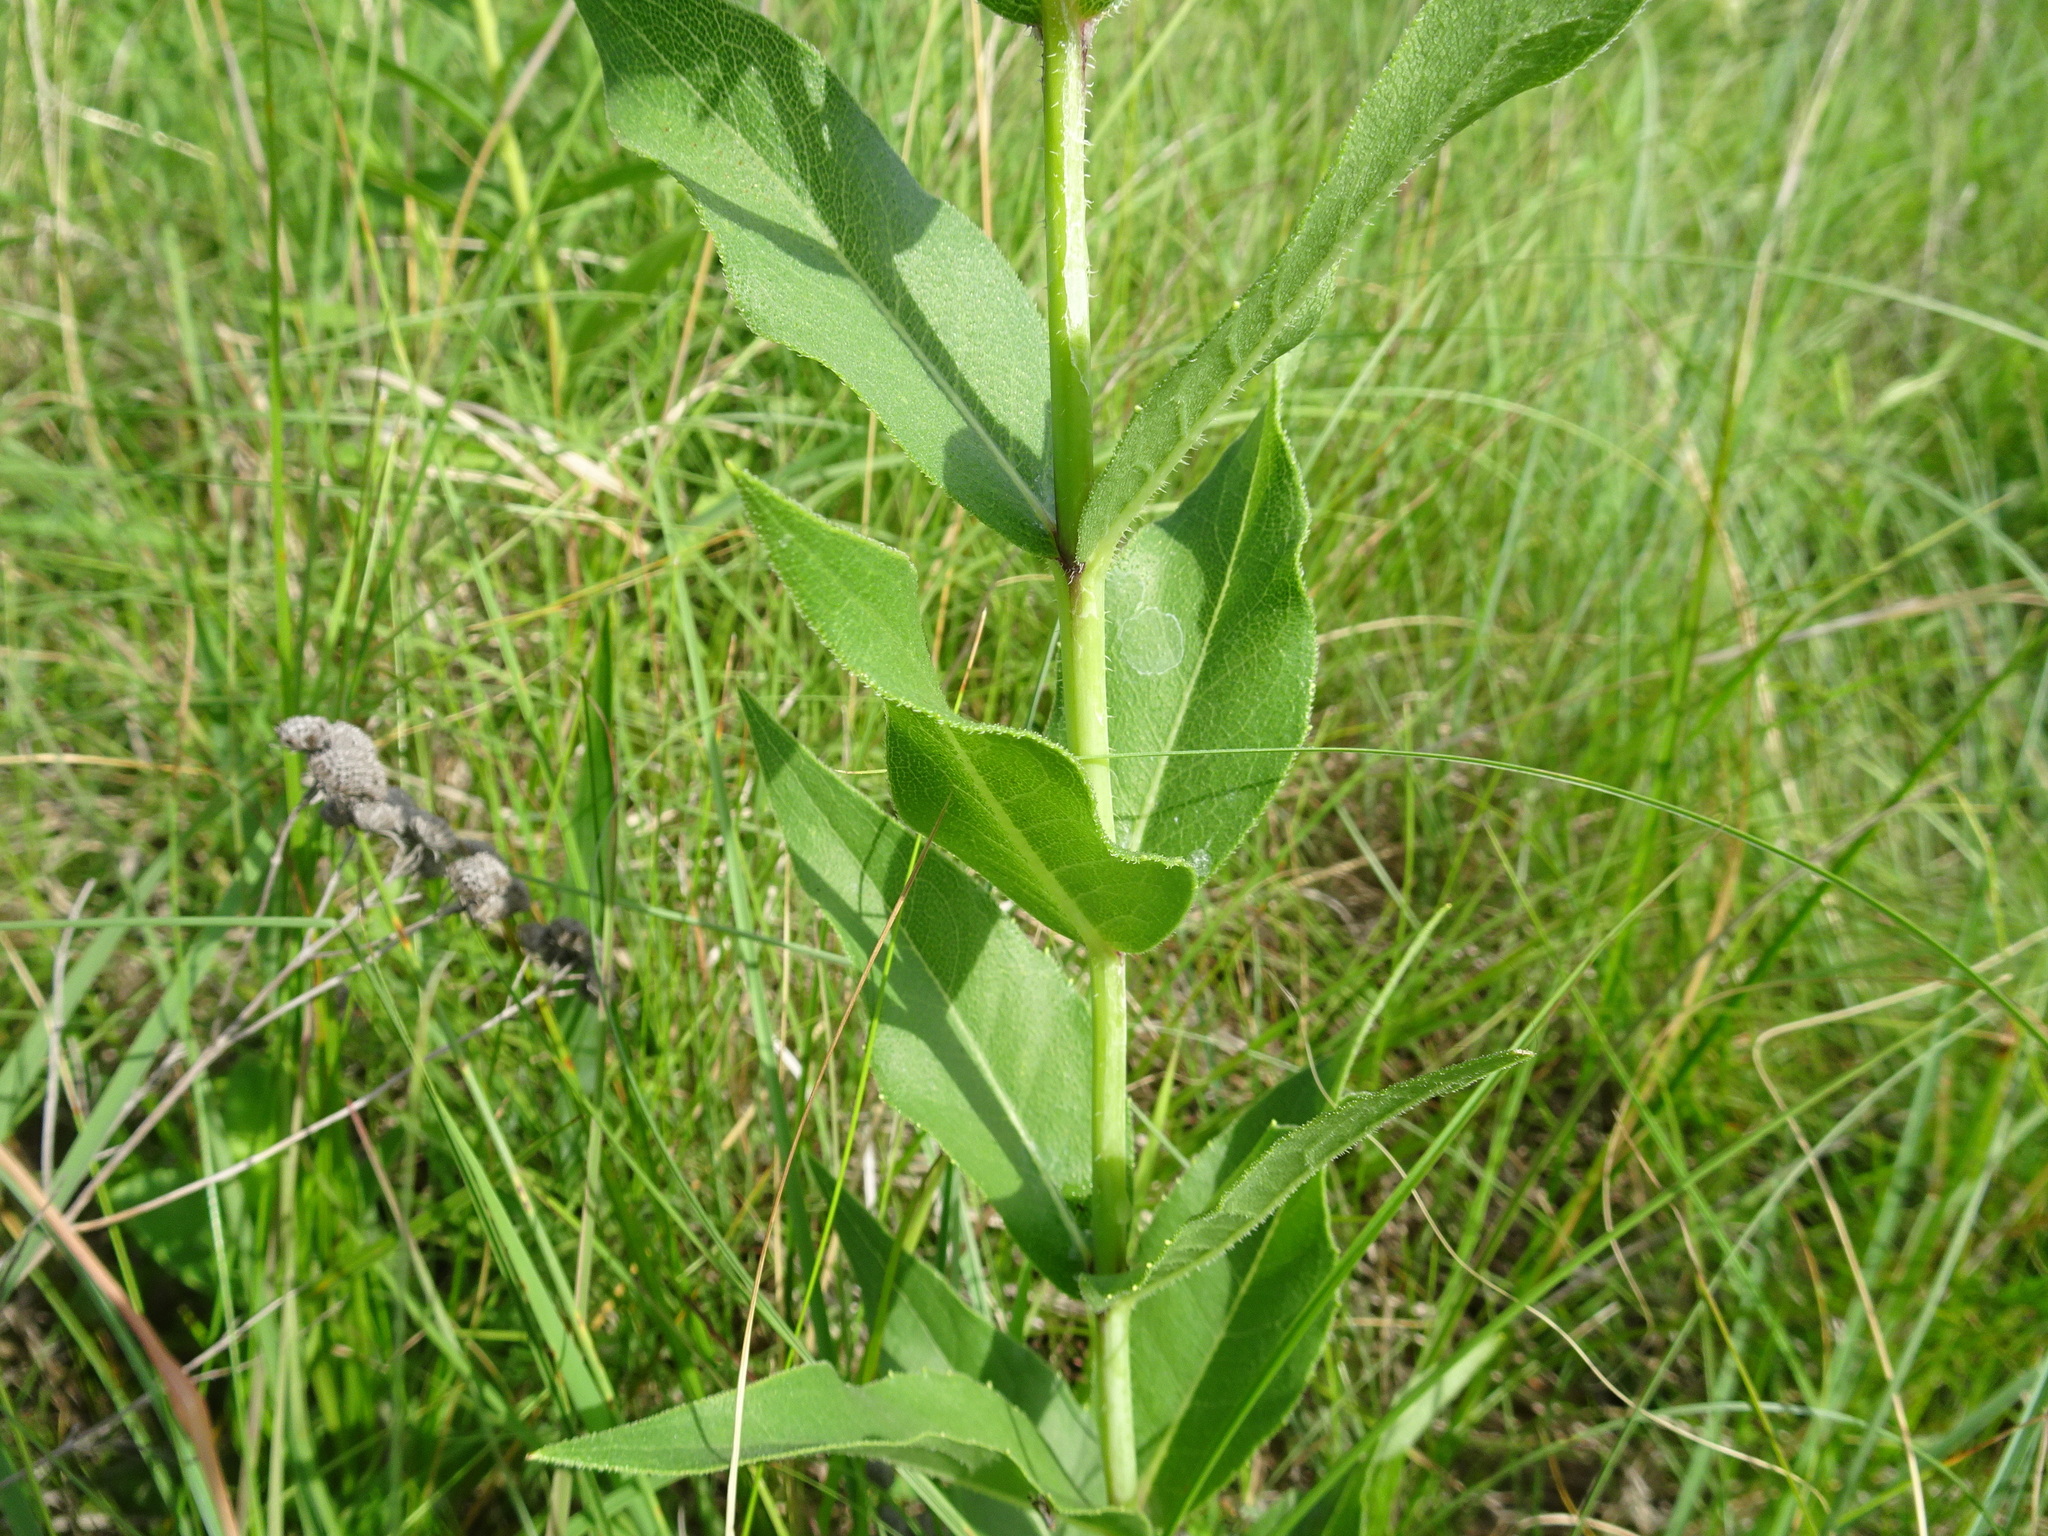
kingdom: Plantae
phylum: Tracheophyta
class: Magnoliopsida
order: Asterales
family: Asteraceae
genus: Silphium
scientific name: Silphium integrifolium
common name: Whole-leaf rosinweed
